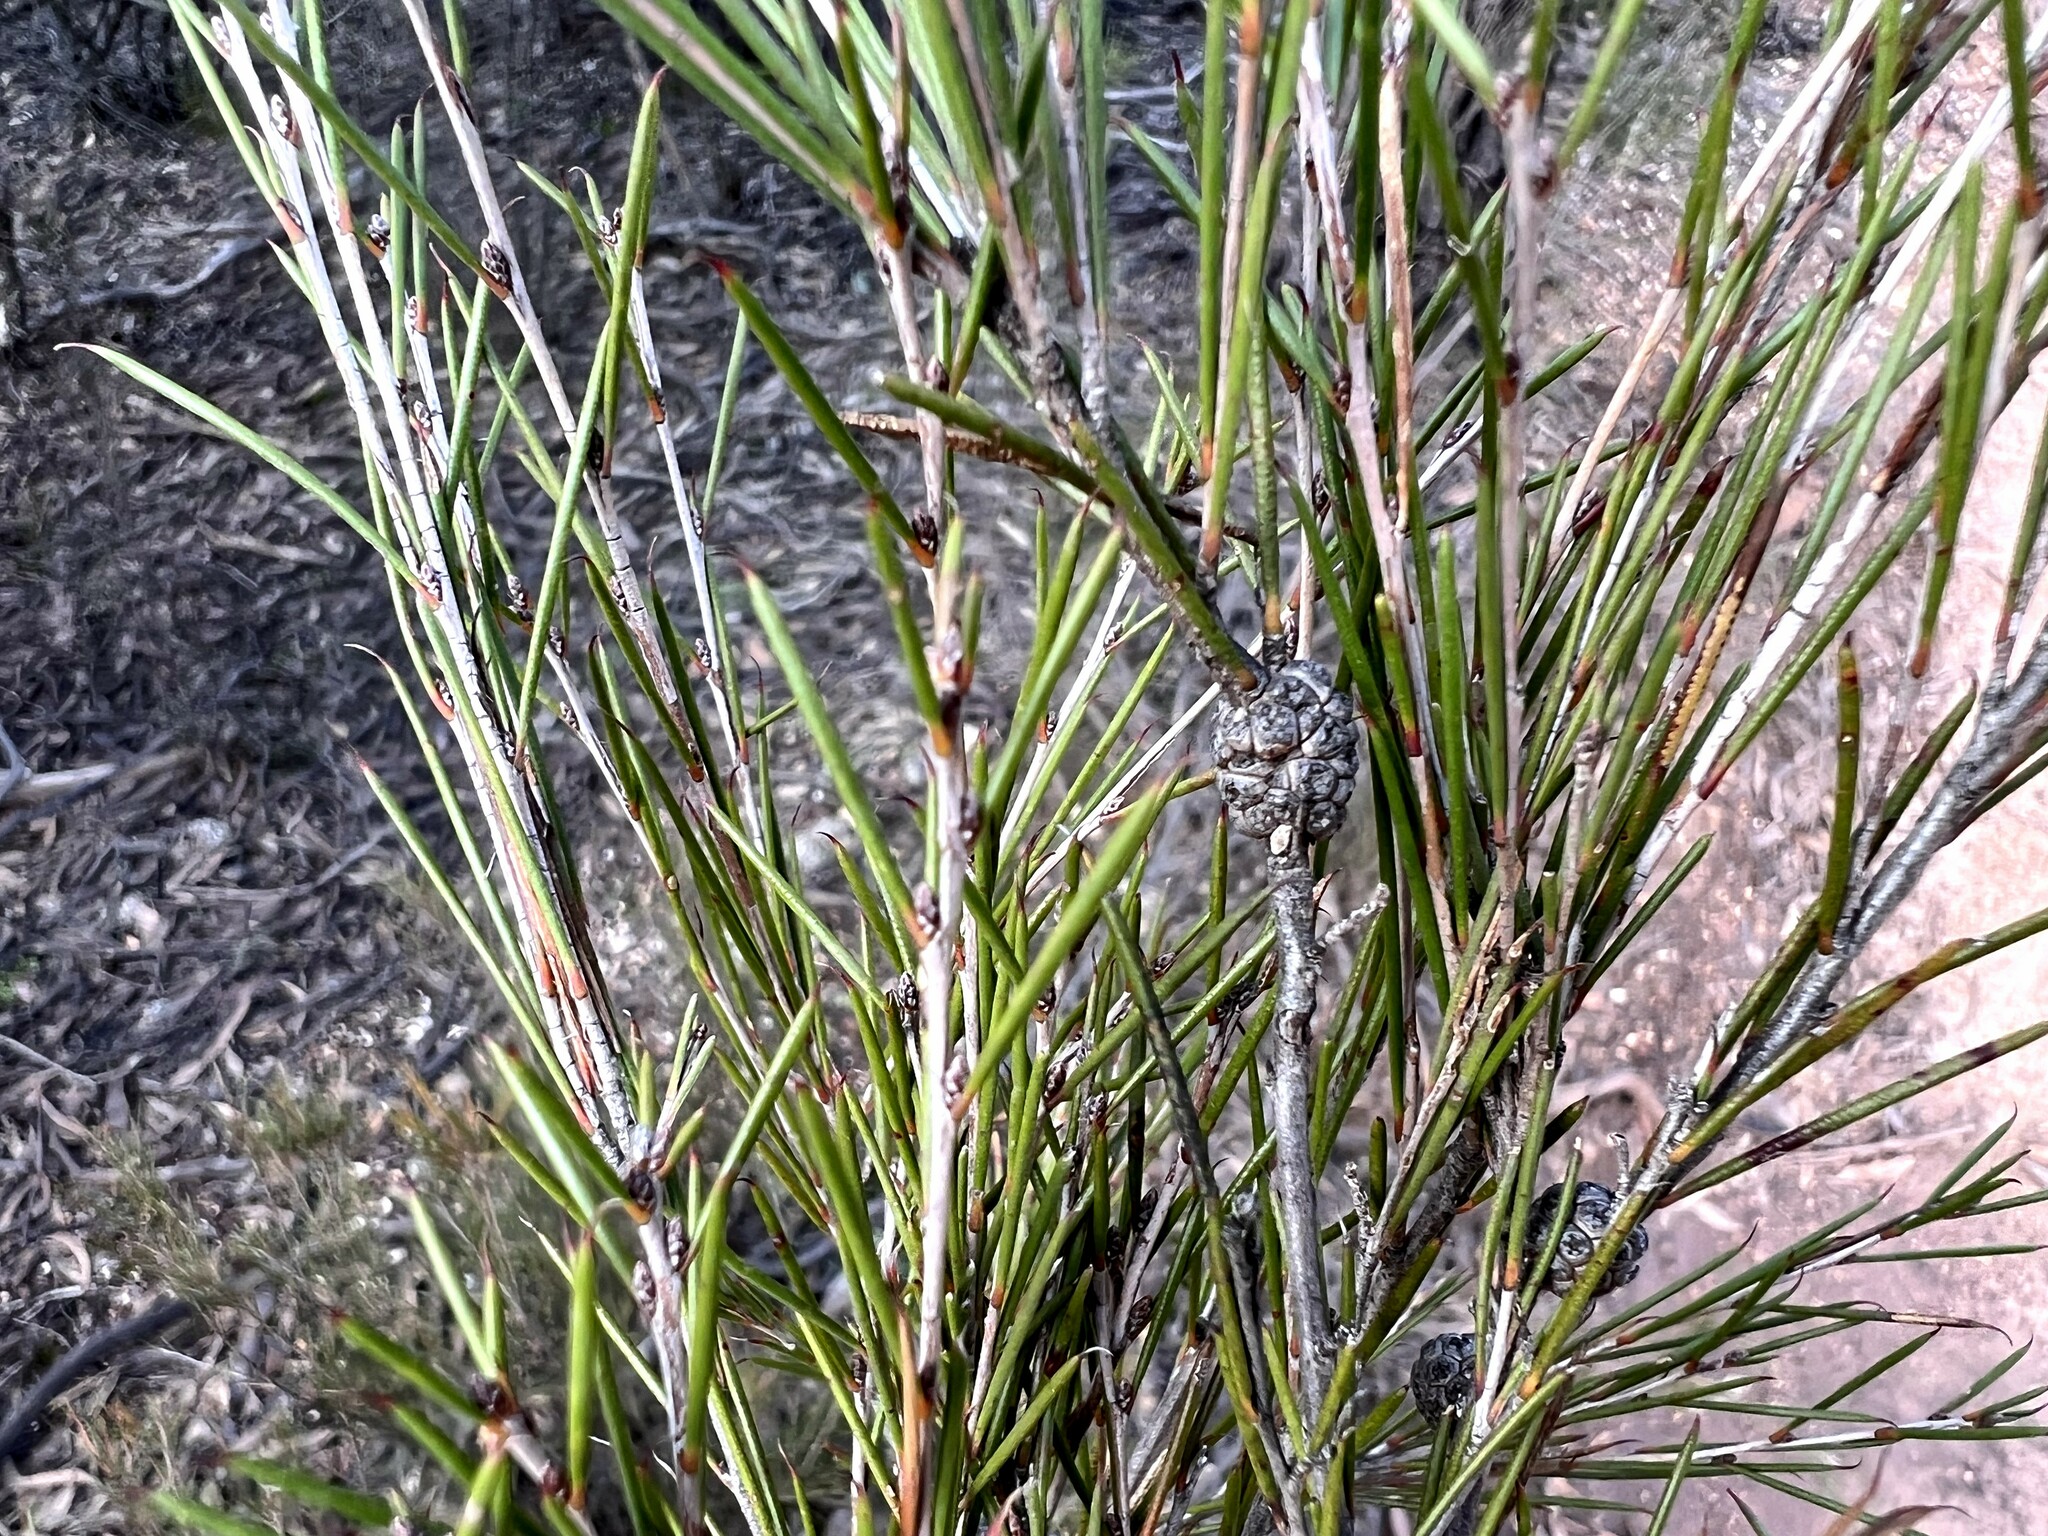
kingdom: Plantae
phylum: Tracheophyta
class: Magnoliopsida
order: Myrtales
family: Myrtaceae
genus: Melaleuca
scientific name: Melaleuca uncinata
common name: Broom honey myrtle
